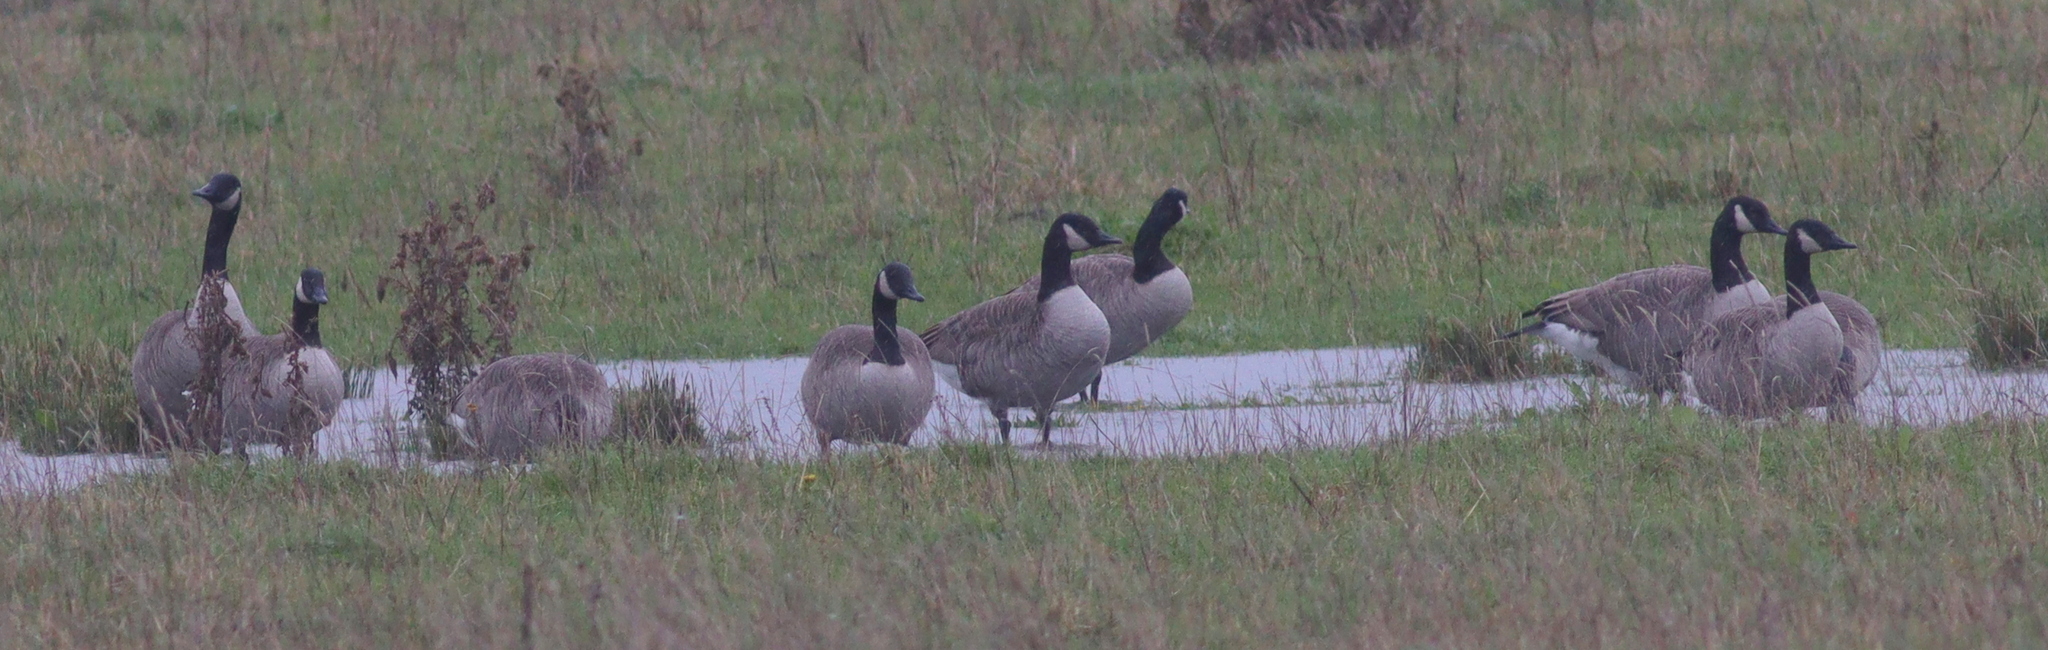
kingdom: Animalia
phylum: Chordata
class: Aves
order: Anseriformes
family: Anatidae
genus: Branta
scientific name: Branta canadensis
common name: Canada goose
